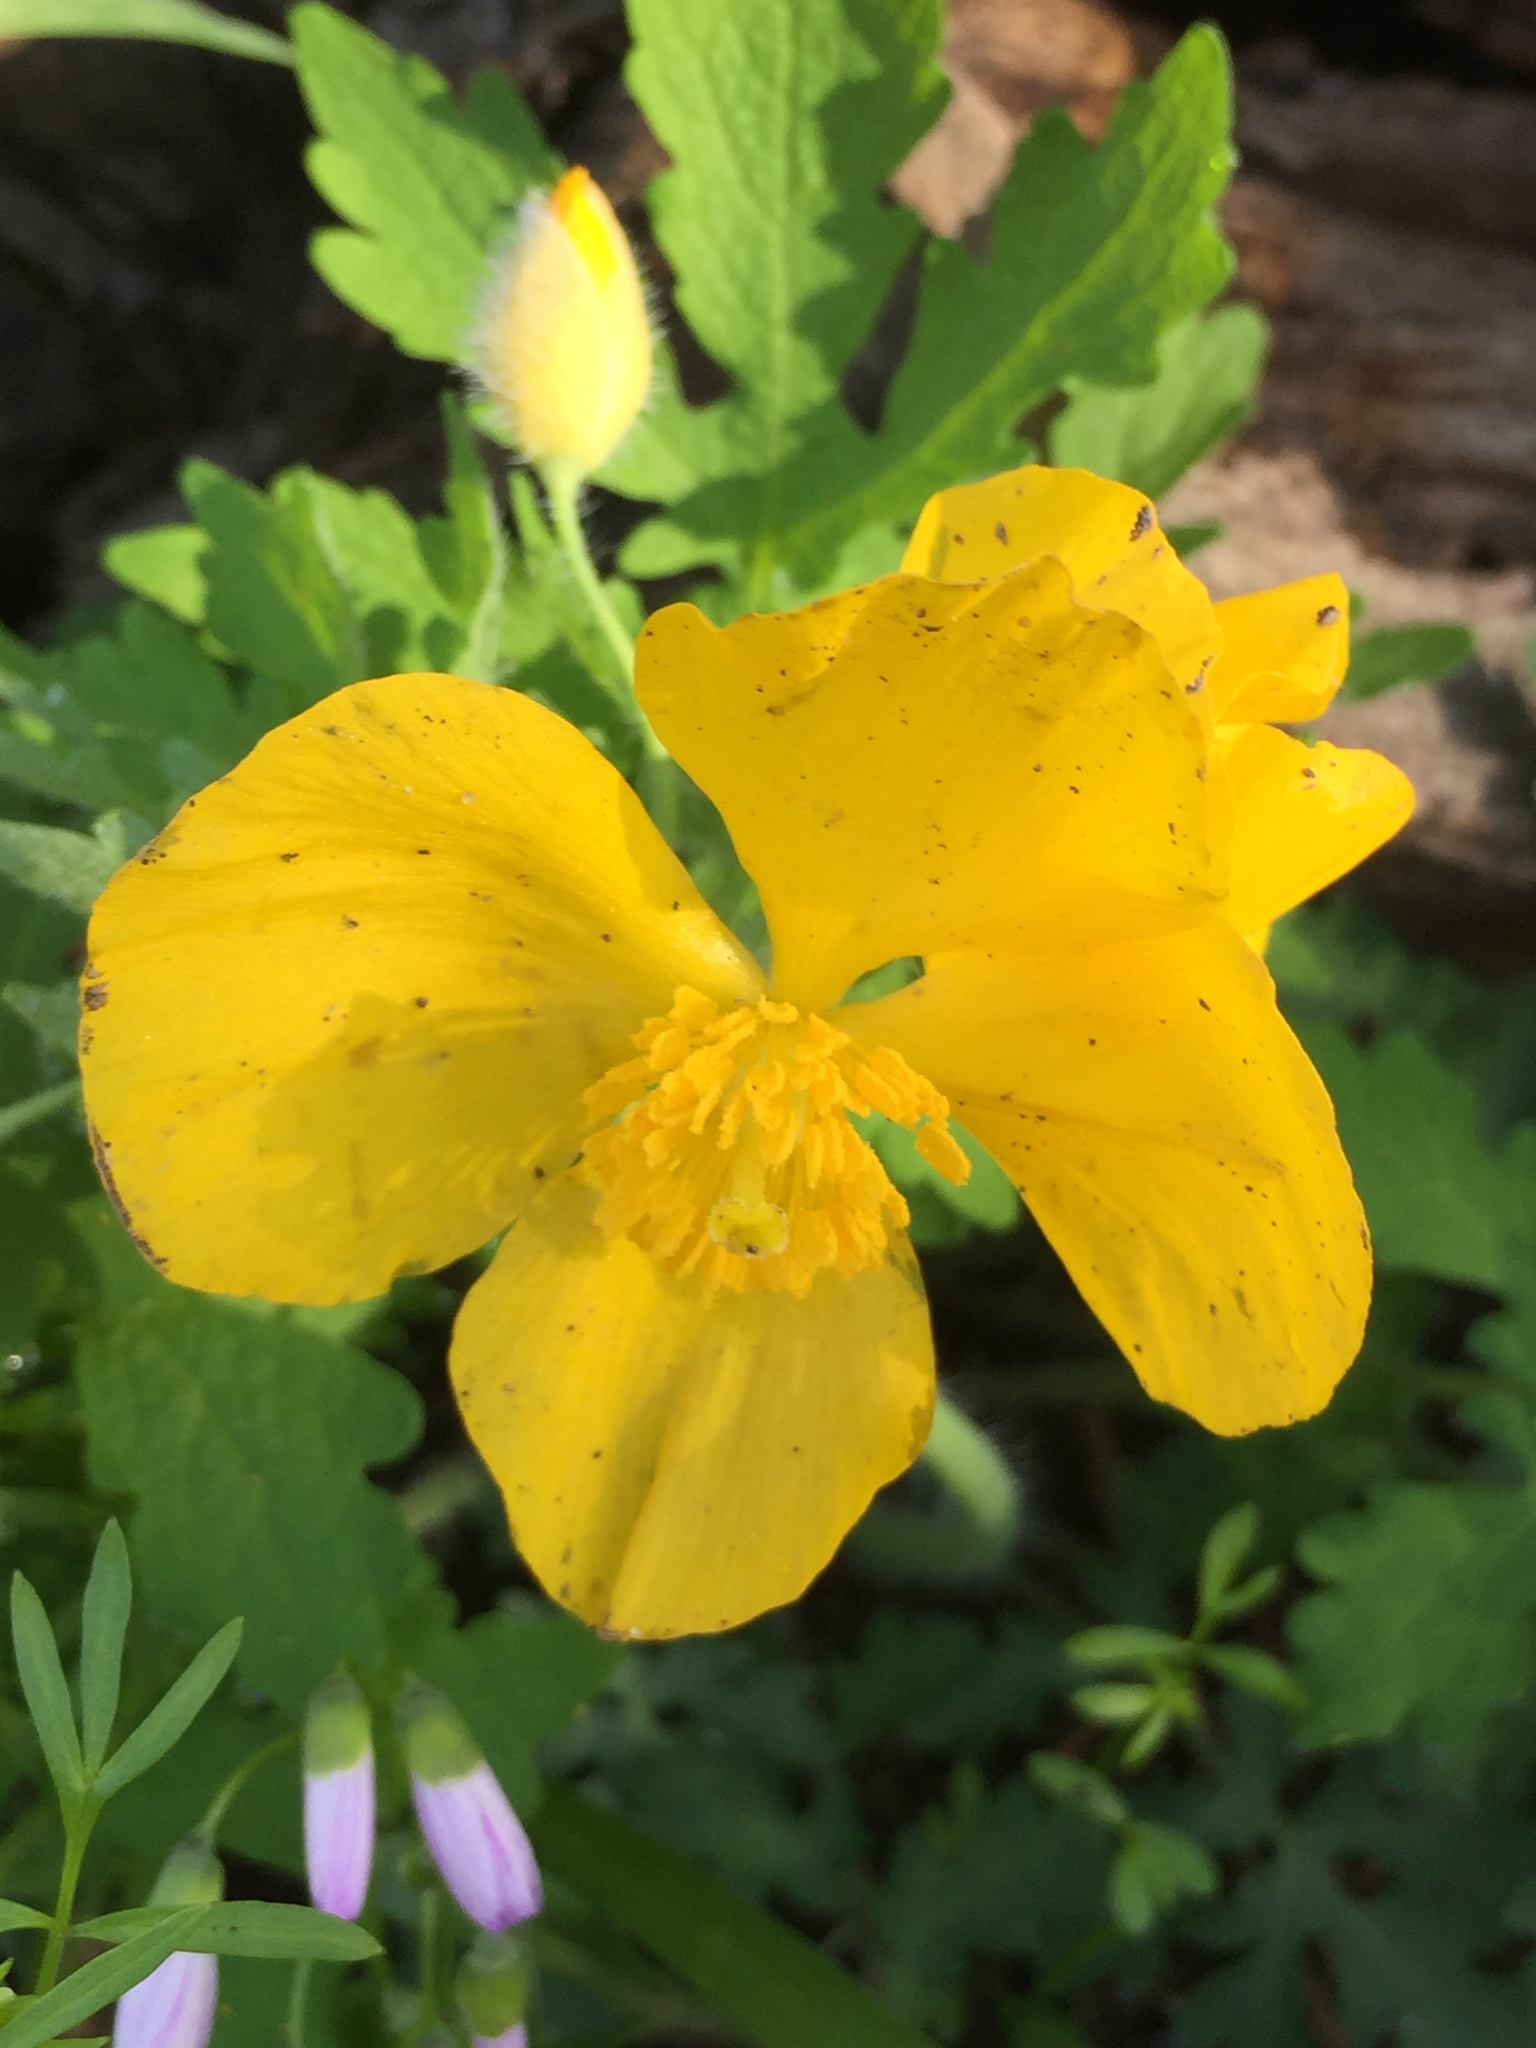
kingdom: Plantae
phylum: Tracheophyta
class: Magnoliopsida
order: Ranunculales
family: Papaveraceae
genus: Stylophorum
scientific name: Stylophorum diphyllum
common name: Celandine poppy
